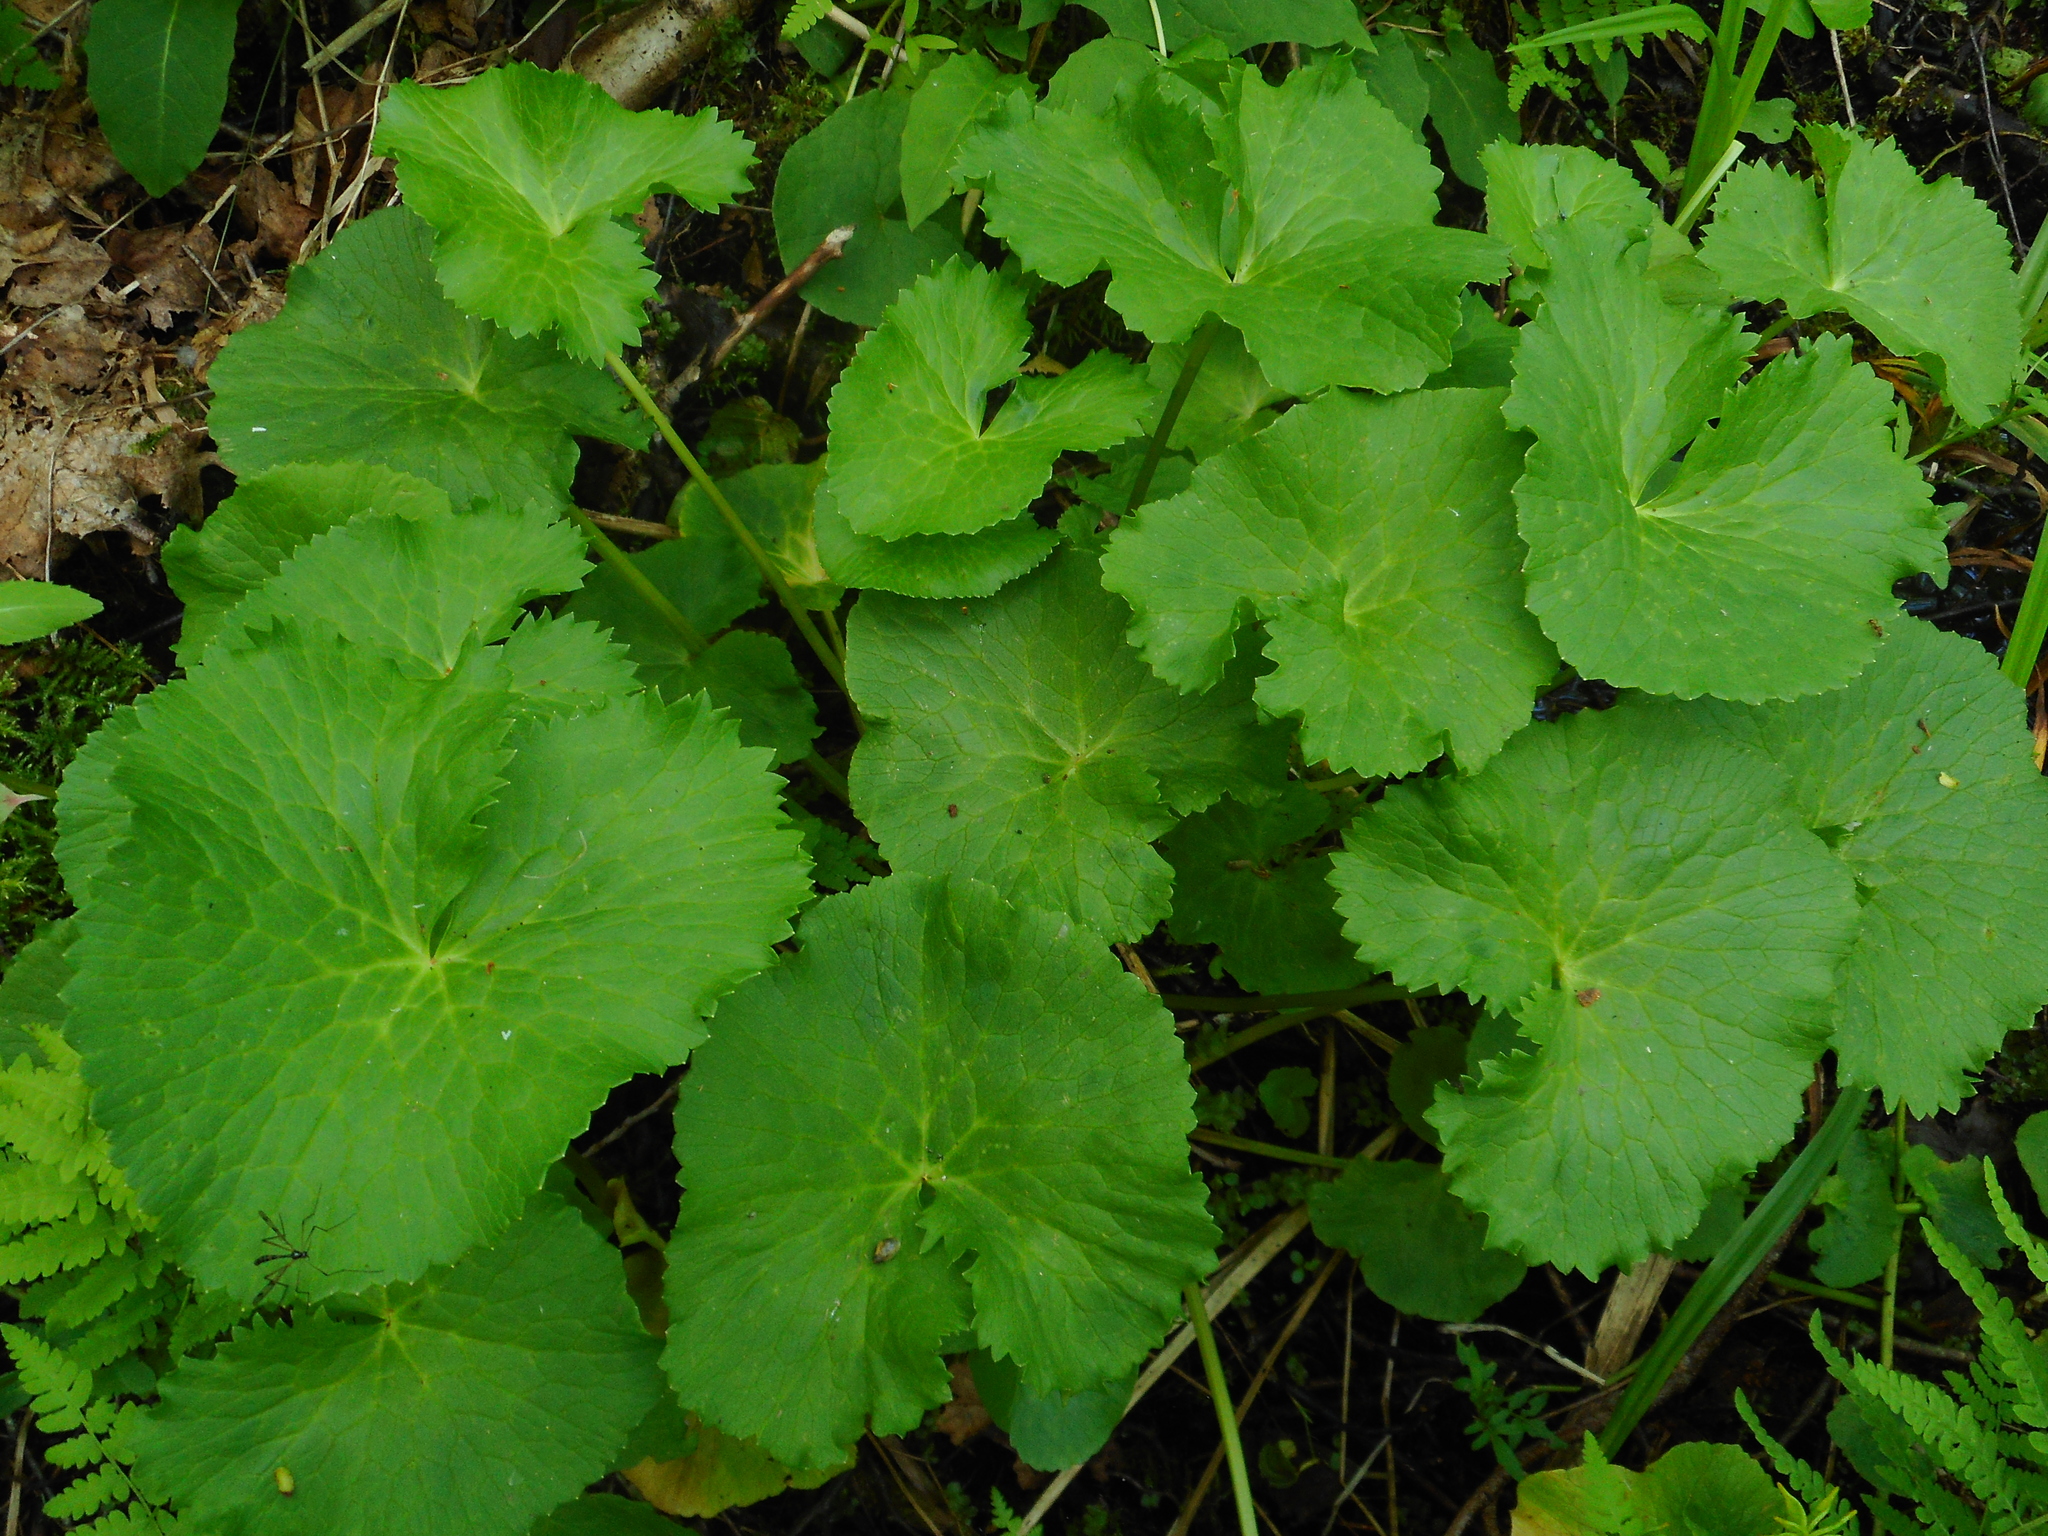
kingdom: Plantae
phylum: Tracheophyta
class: Magnoliopsida
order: Ranunculales
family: Ranunculaceae
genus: Caltha
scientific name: Caltha palustris
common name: Marsh marigold
